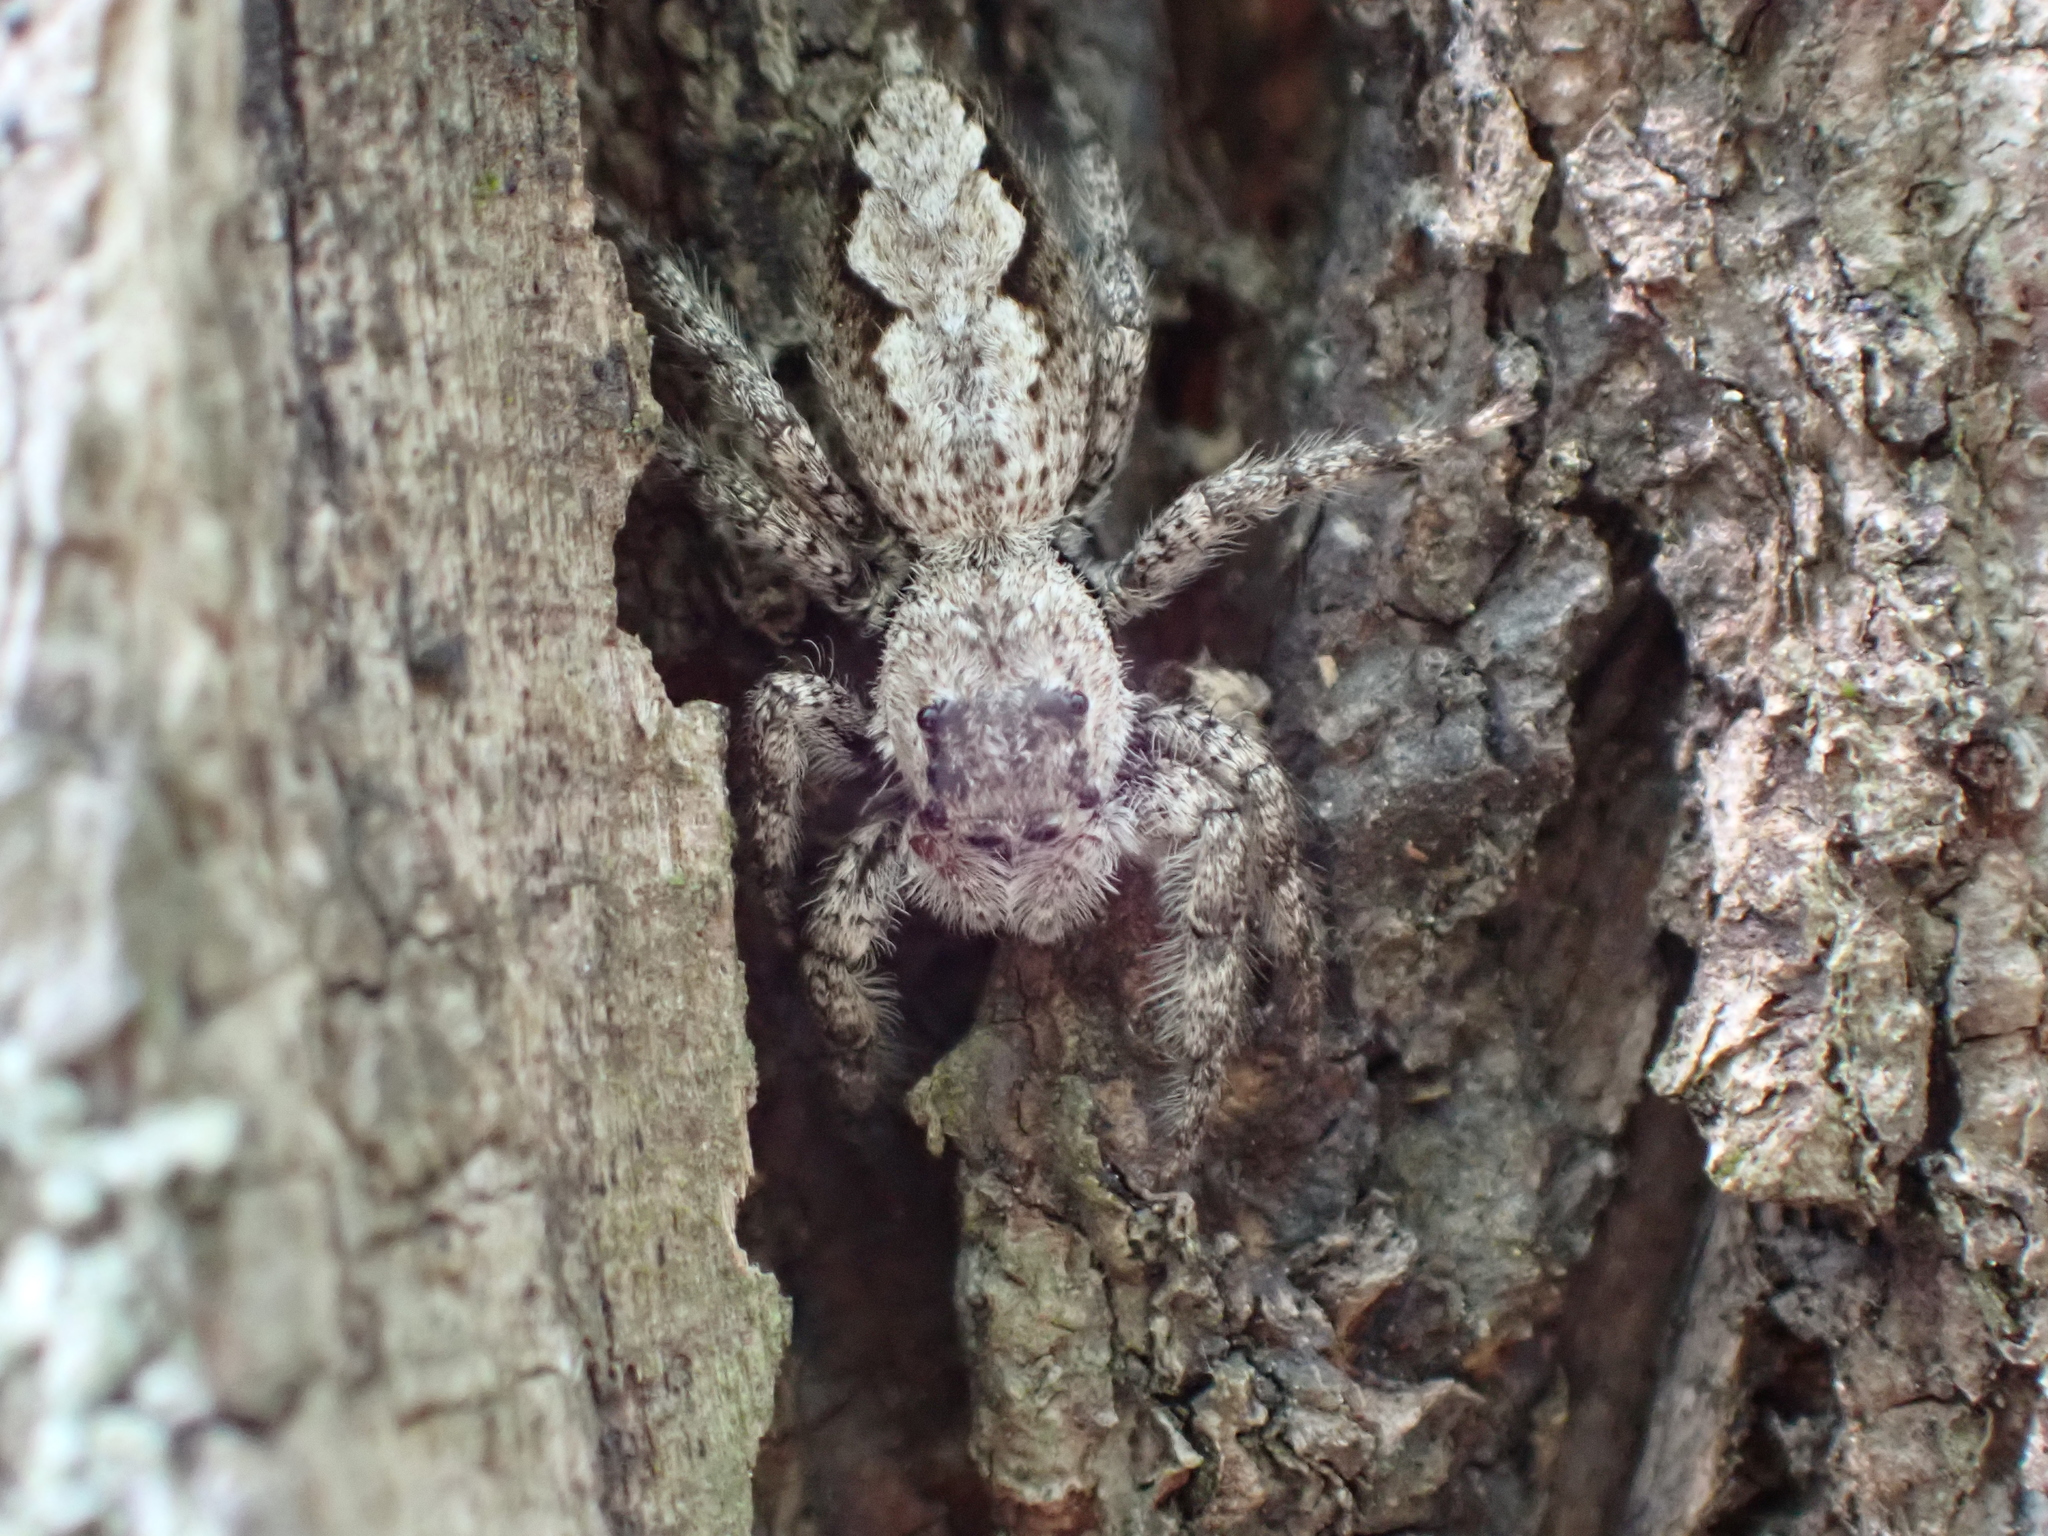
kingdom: Animalia
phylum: Arthropoda
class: Arachnida
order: Araneae
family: Salticidae
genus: Platycryptus
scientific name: Platycryptus undatus
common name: Tan jumping spider
